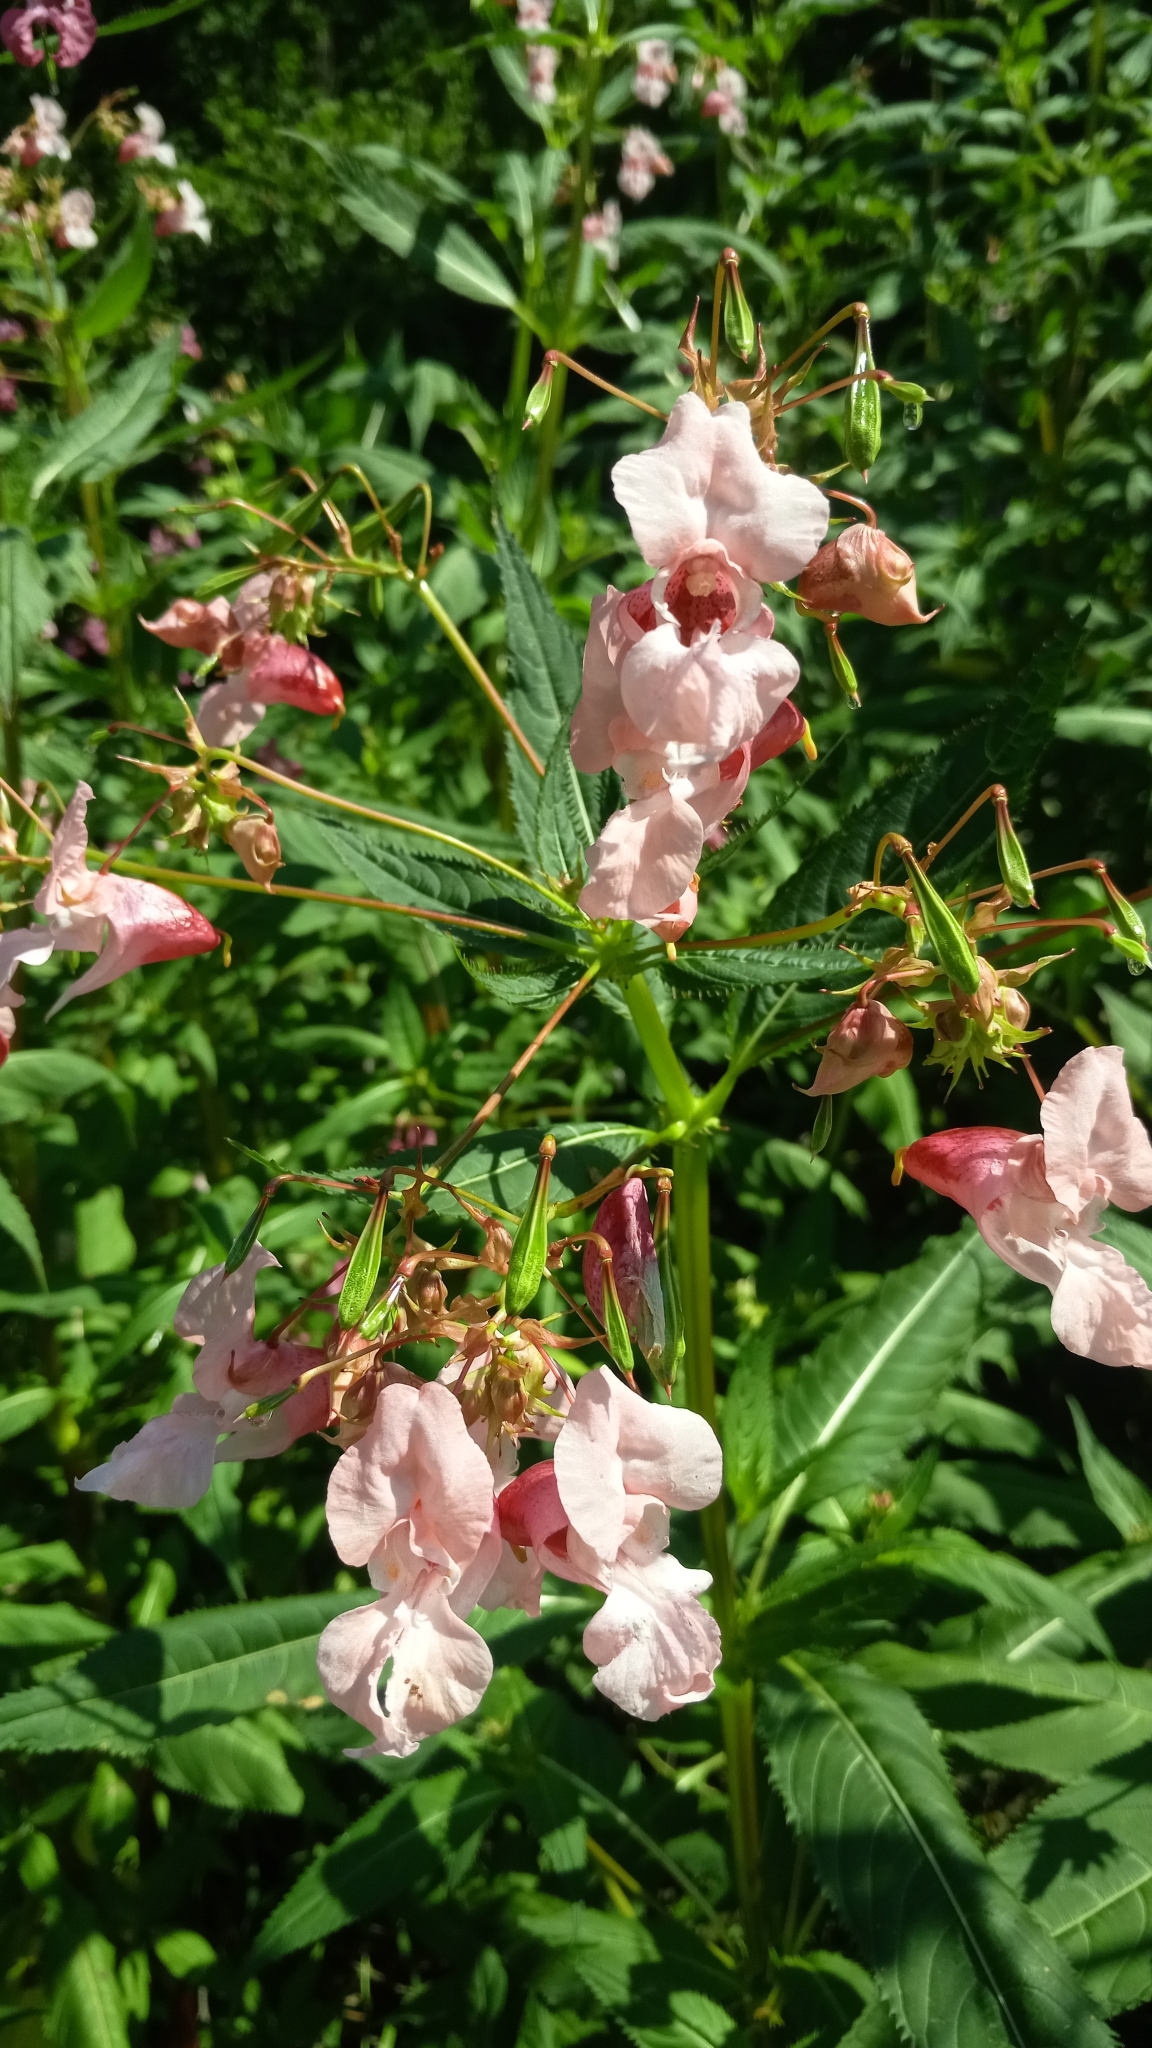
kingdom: Plantae
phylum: Tracheophyta
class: Magnoliopsida
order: Ericales
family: Balsaminaceae
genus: Impatiens
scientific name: Impatiens glandulifera
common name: Himalayan balsam
